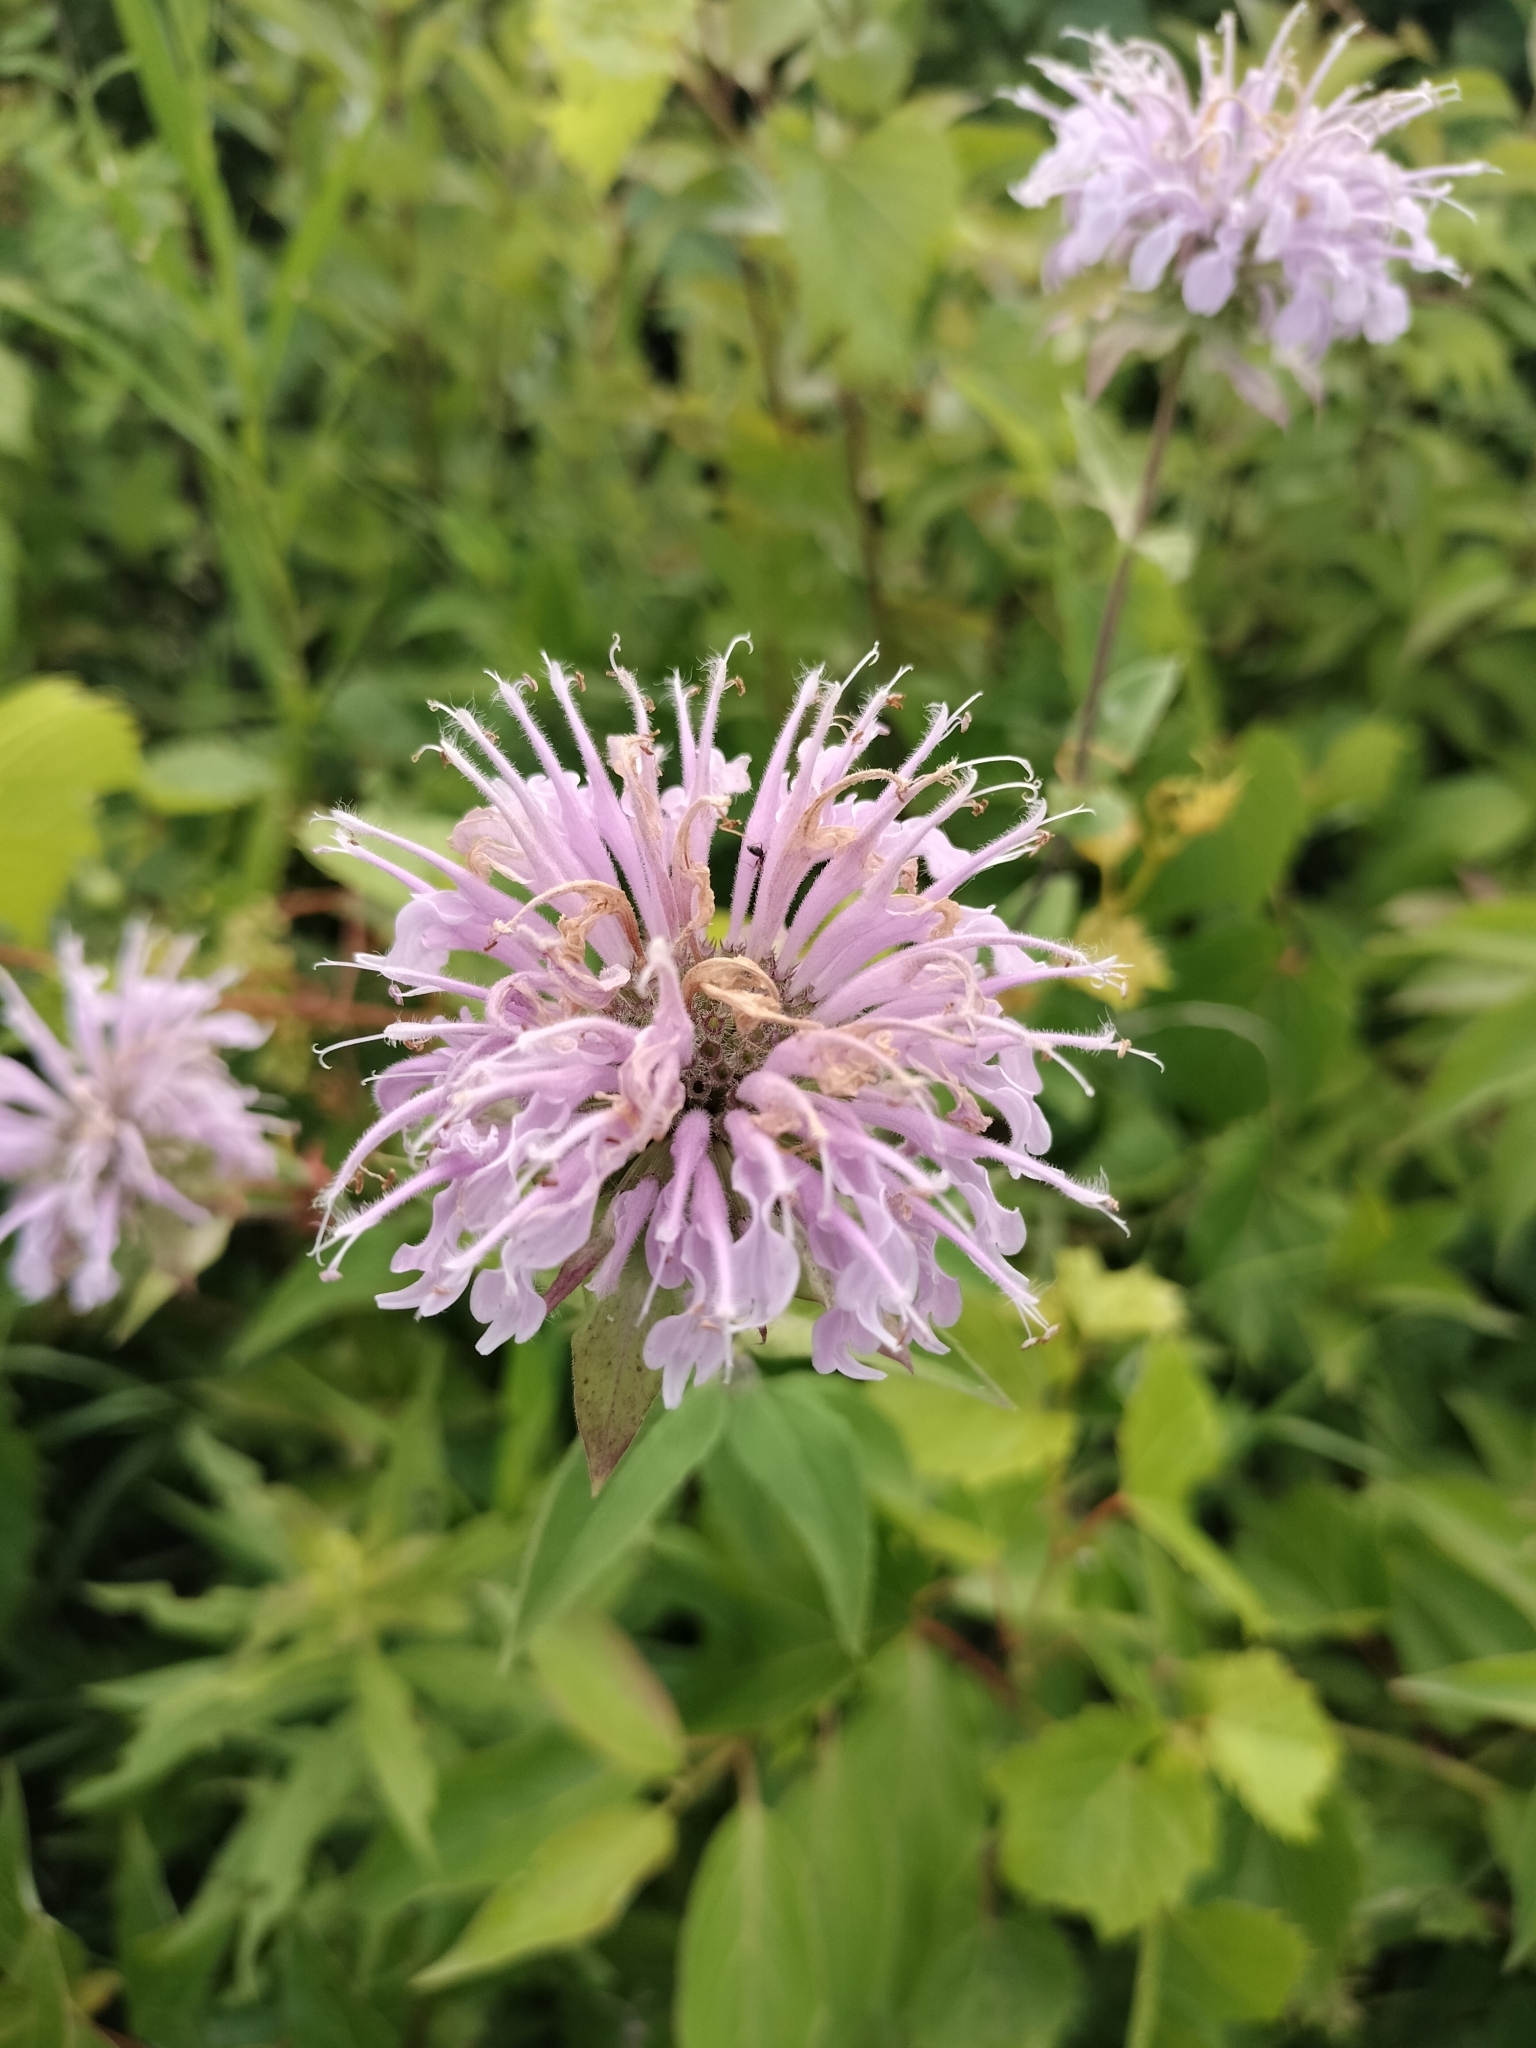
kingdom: Plantae
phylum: Tracheophyta
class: Magnoliopsida
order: Lamiales
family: Lamiaceae
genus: Monarda
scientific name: Monarda fistulosa
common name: Purple beebalm
